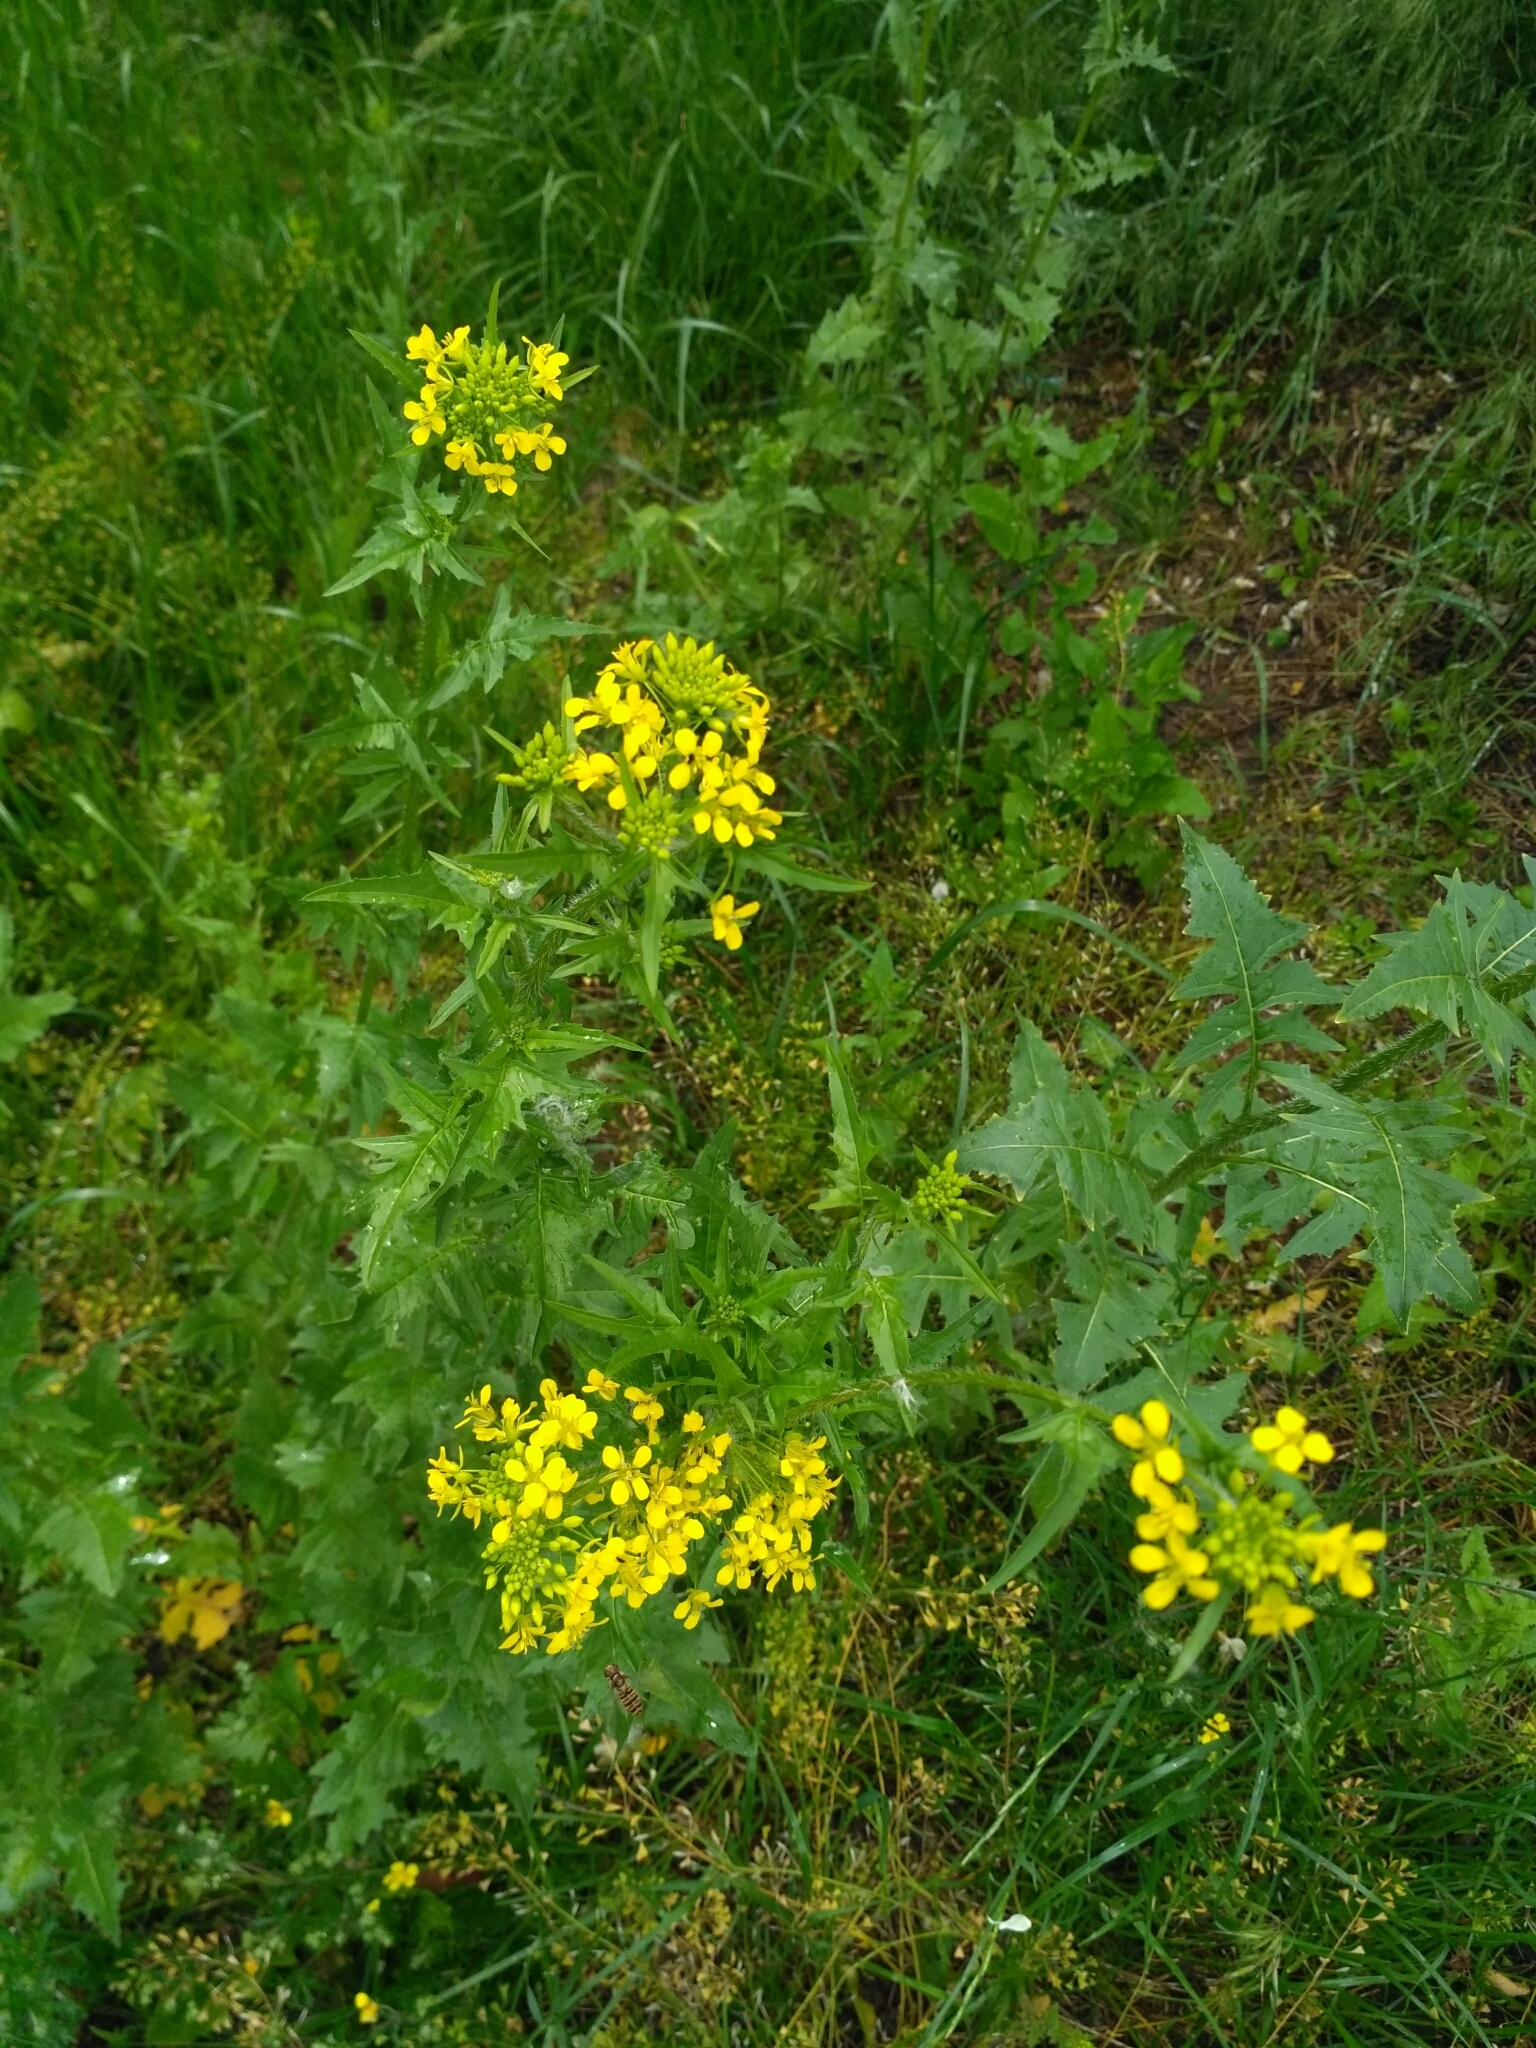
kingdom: Plantae
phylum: Tracheophyta
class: Magnoliopsida
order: Brassicales
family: Brassicaceae
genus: Sisymbrium
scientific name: Sisymbrium loeselii
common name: False london-rocket
